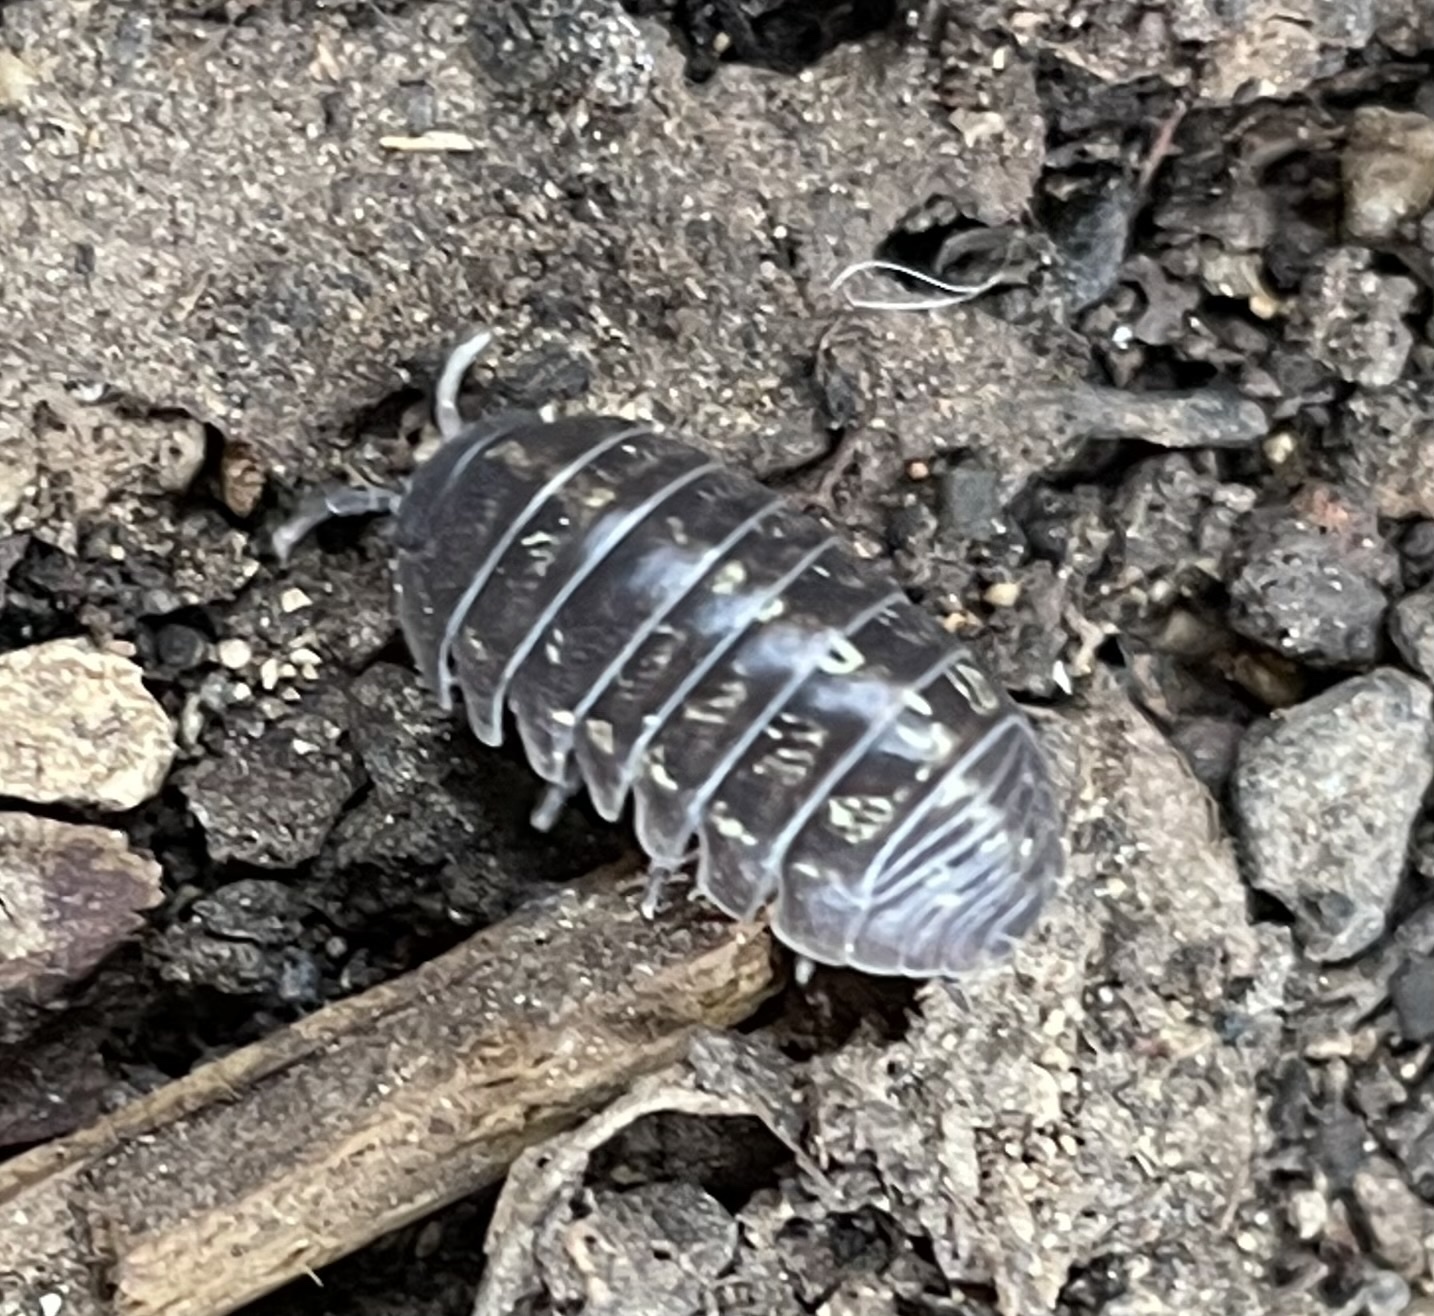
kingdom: Animalia
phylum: Arthropoda
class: Malacostraca
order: Isopoda
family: Armadillidiidae
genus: Armadillidium
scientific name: Armadillidium vulgare
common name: Common pill woodlouse
